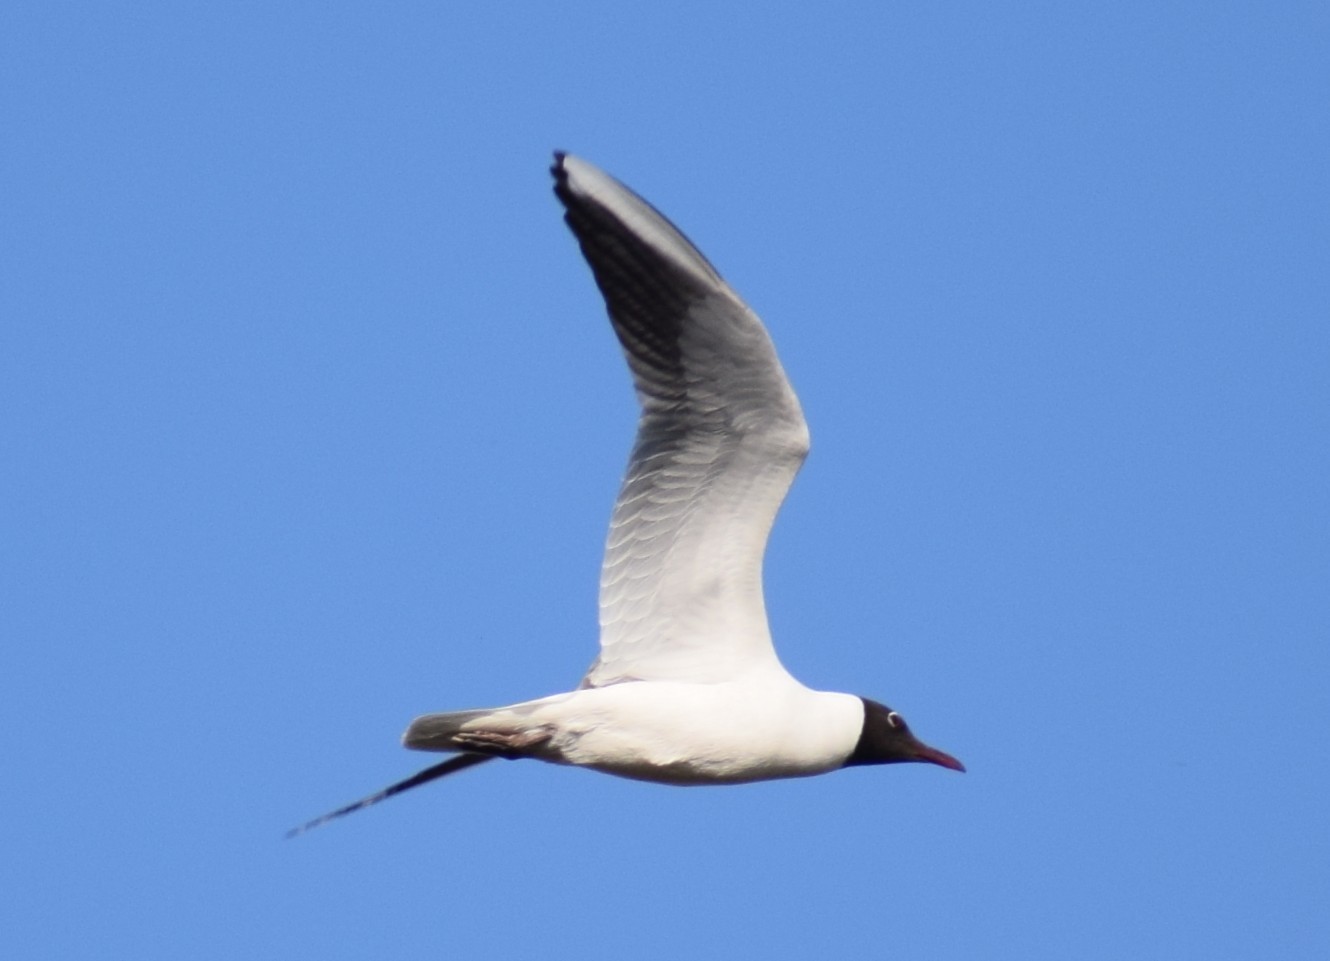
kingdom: Animalia
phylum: Chordata
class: Aves
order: Charadriiformes
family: Laridae
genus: Chroicocephalus
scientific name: Chroicocephalus ridibundus
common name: Black-headed gull
